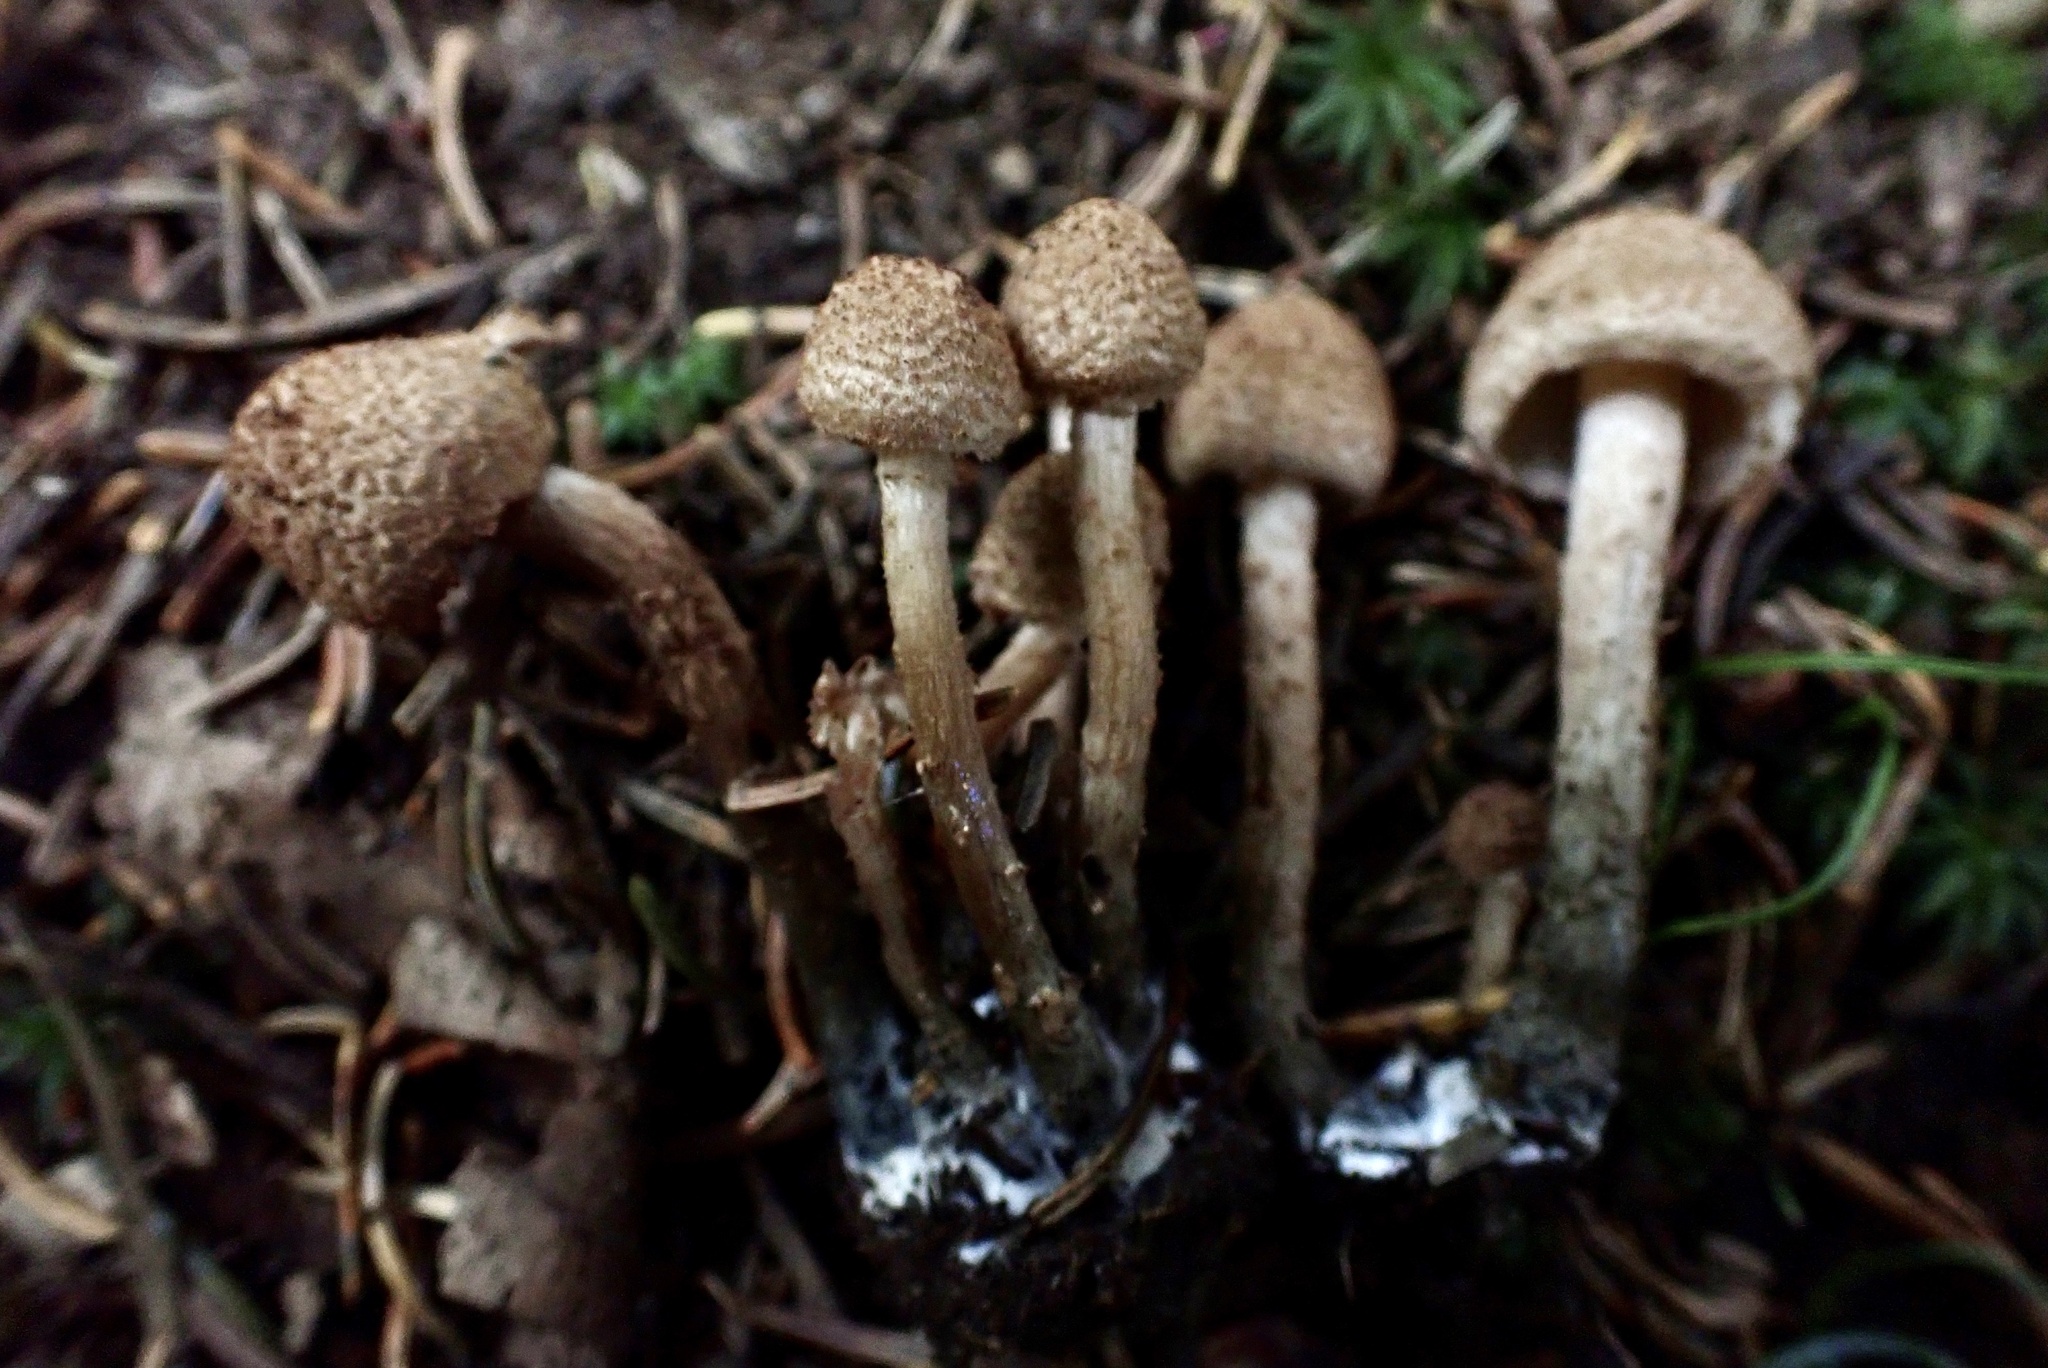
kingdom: Fungi
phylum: Basidiomycota
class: Agaricomycetes
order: Agaricales
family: Inocybaceae
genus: Inosperma
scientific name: Inosperma apiosmotum
